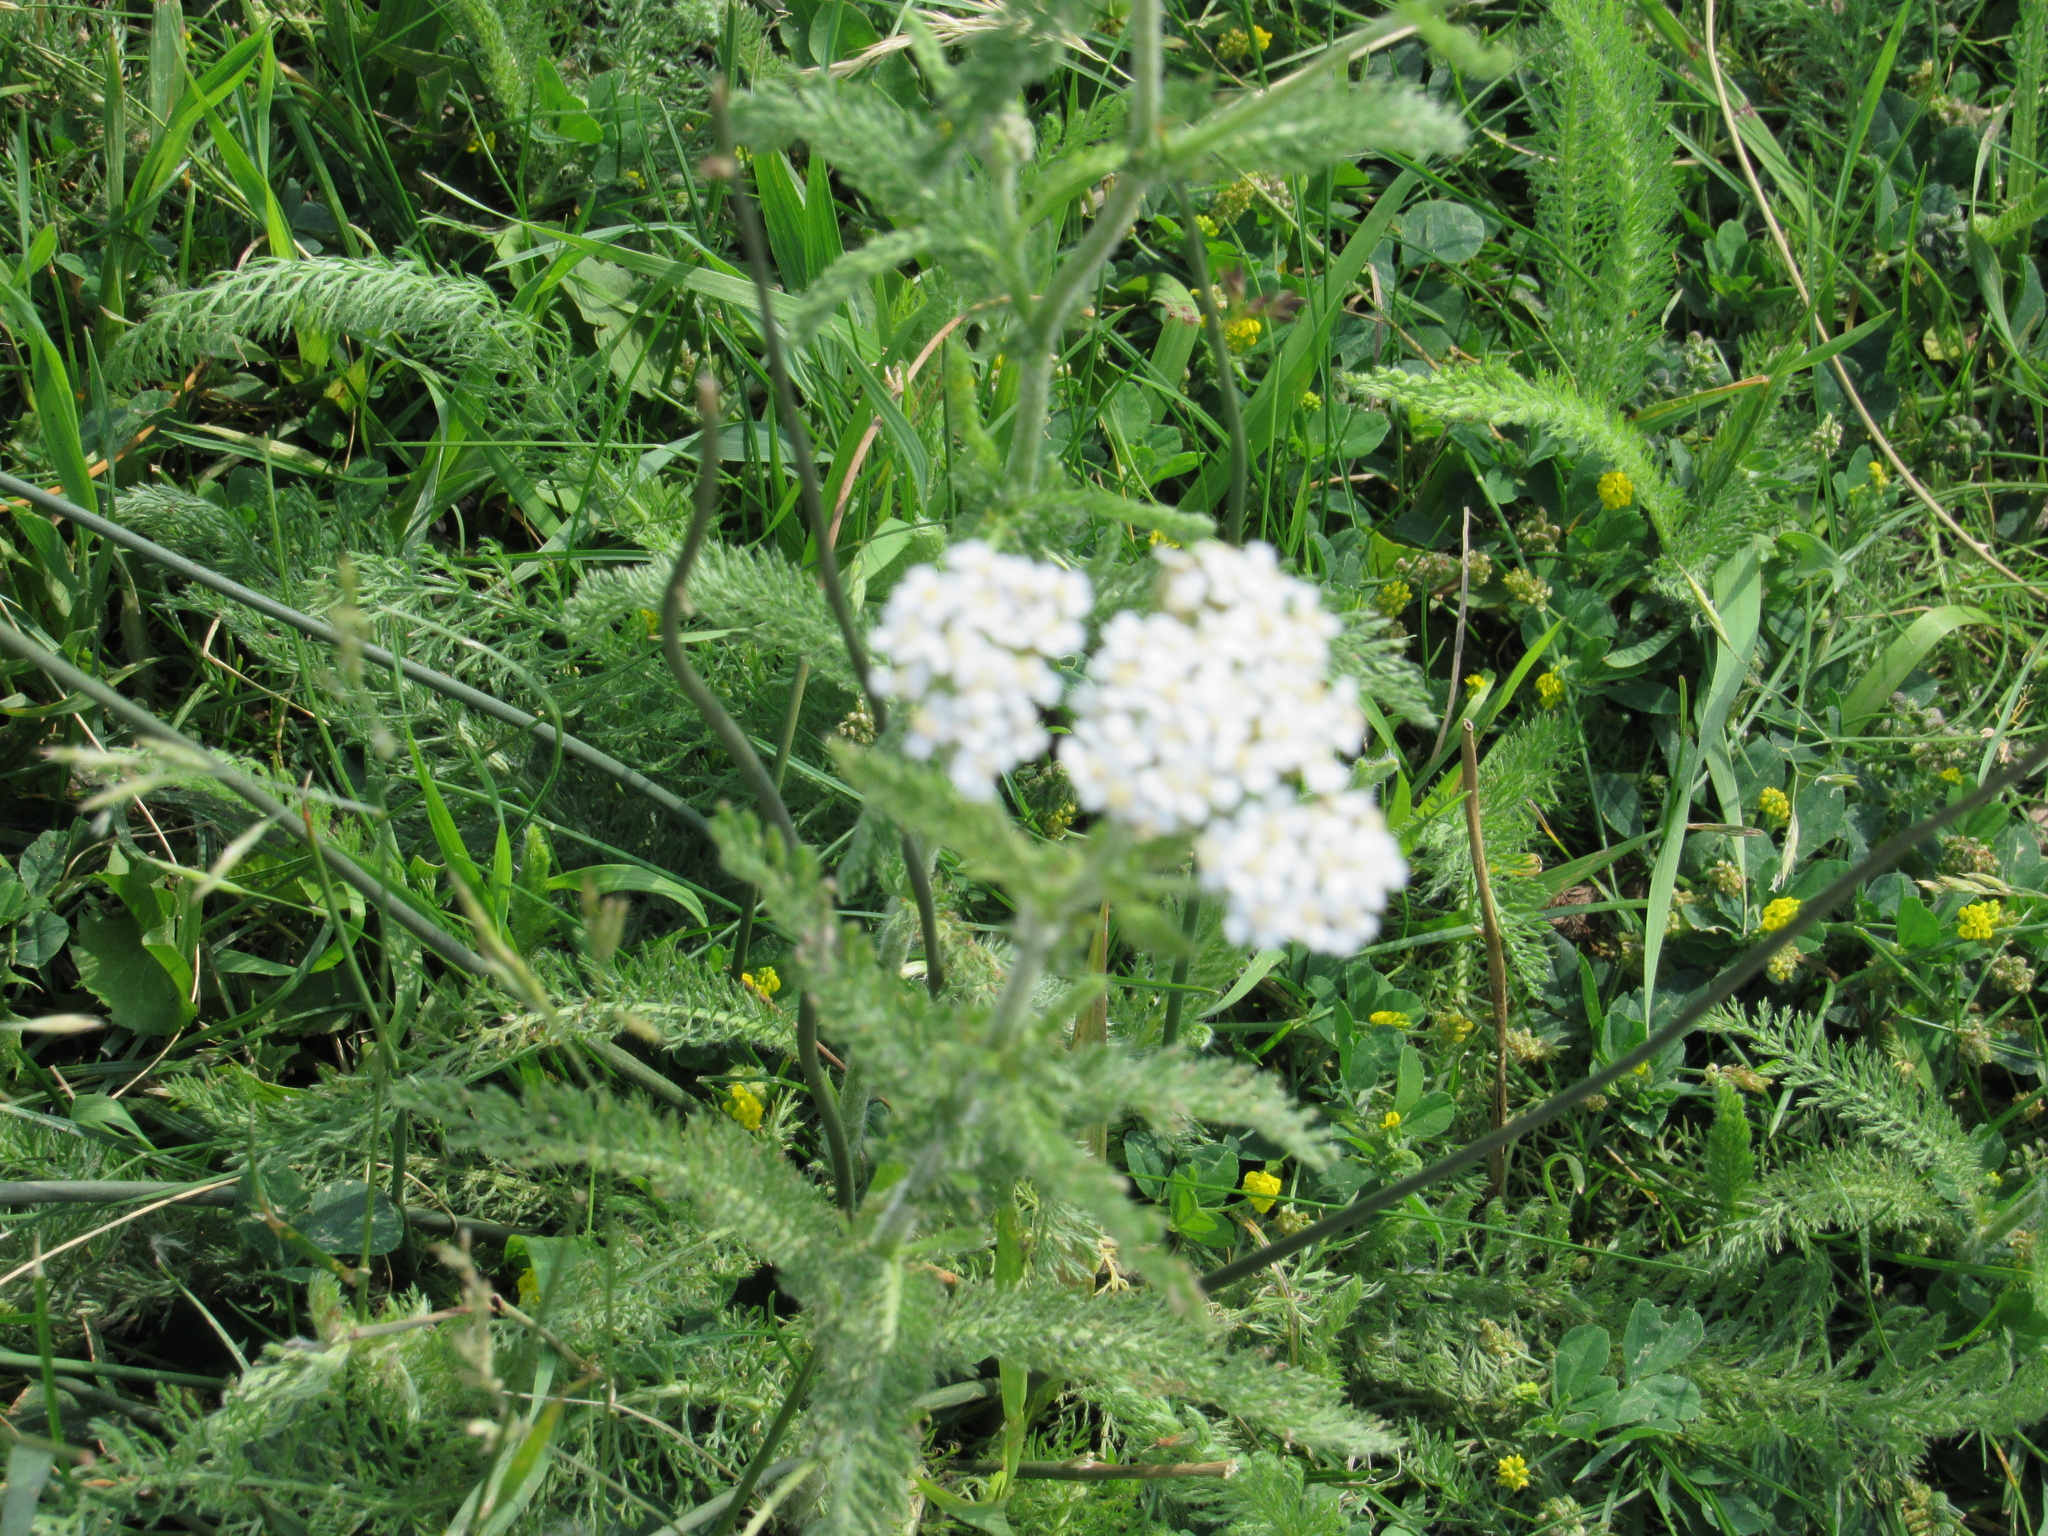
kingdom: Plantae
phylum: Tracheophyta
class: Magnoliopsida
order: Asterales
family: Asteraceae
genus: Achillea
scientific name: Achillea millefolium
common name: Yarrow
